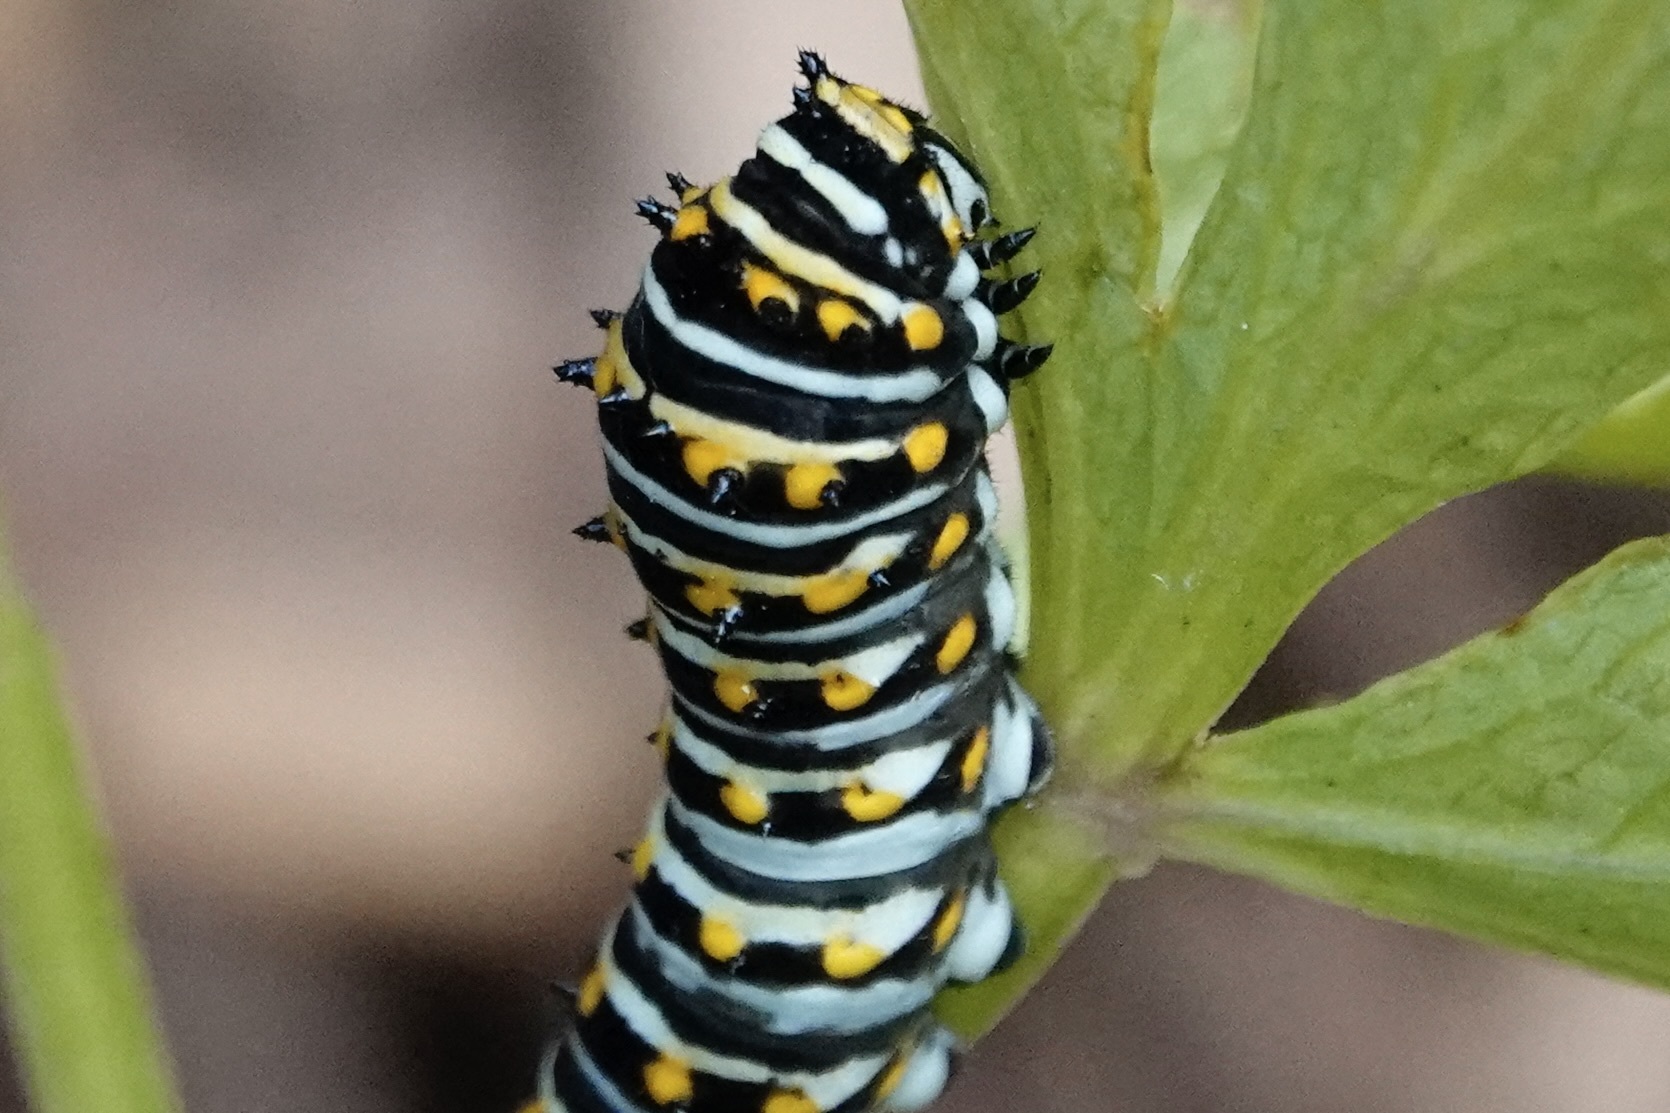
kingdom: Animalia
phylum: Arthropoda
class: Insecta
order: Lepidoptera
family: Papilionidae
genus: Papilio
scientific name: Papilio polyxenes
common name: Black swallowtail
